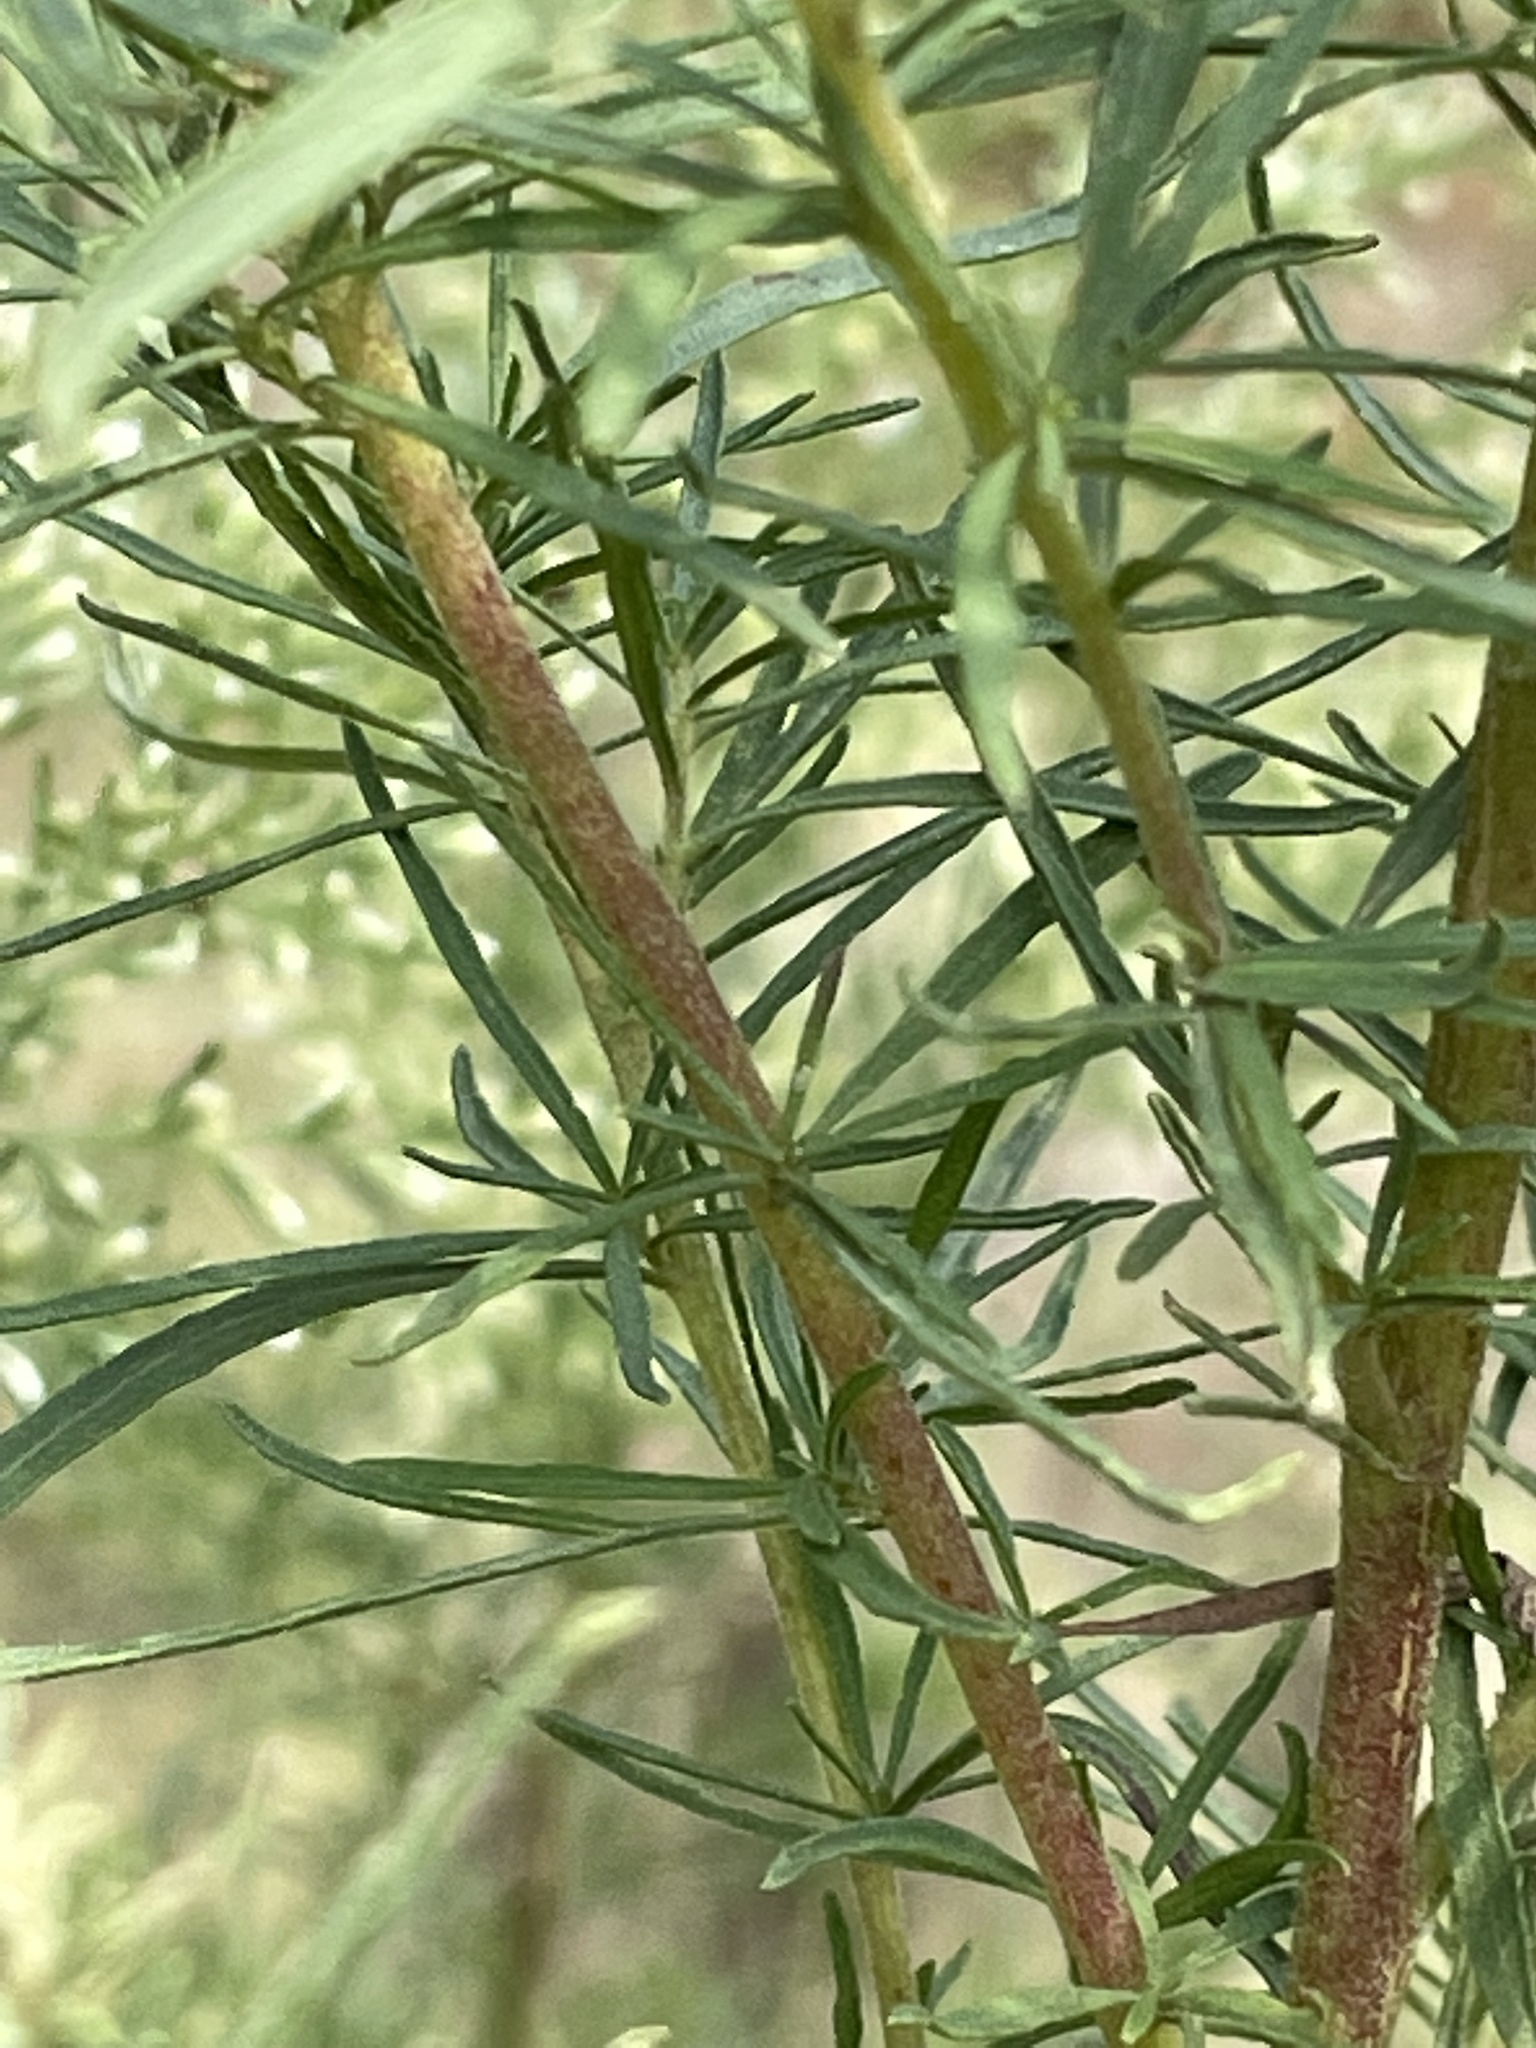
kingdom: Plantae
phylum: Tracheophyta
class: Magnoliopsida
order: Asterales
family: Asteraceae
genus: Eupatorium
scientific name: Eupatorium compositifolium
